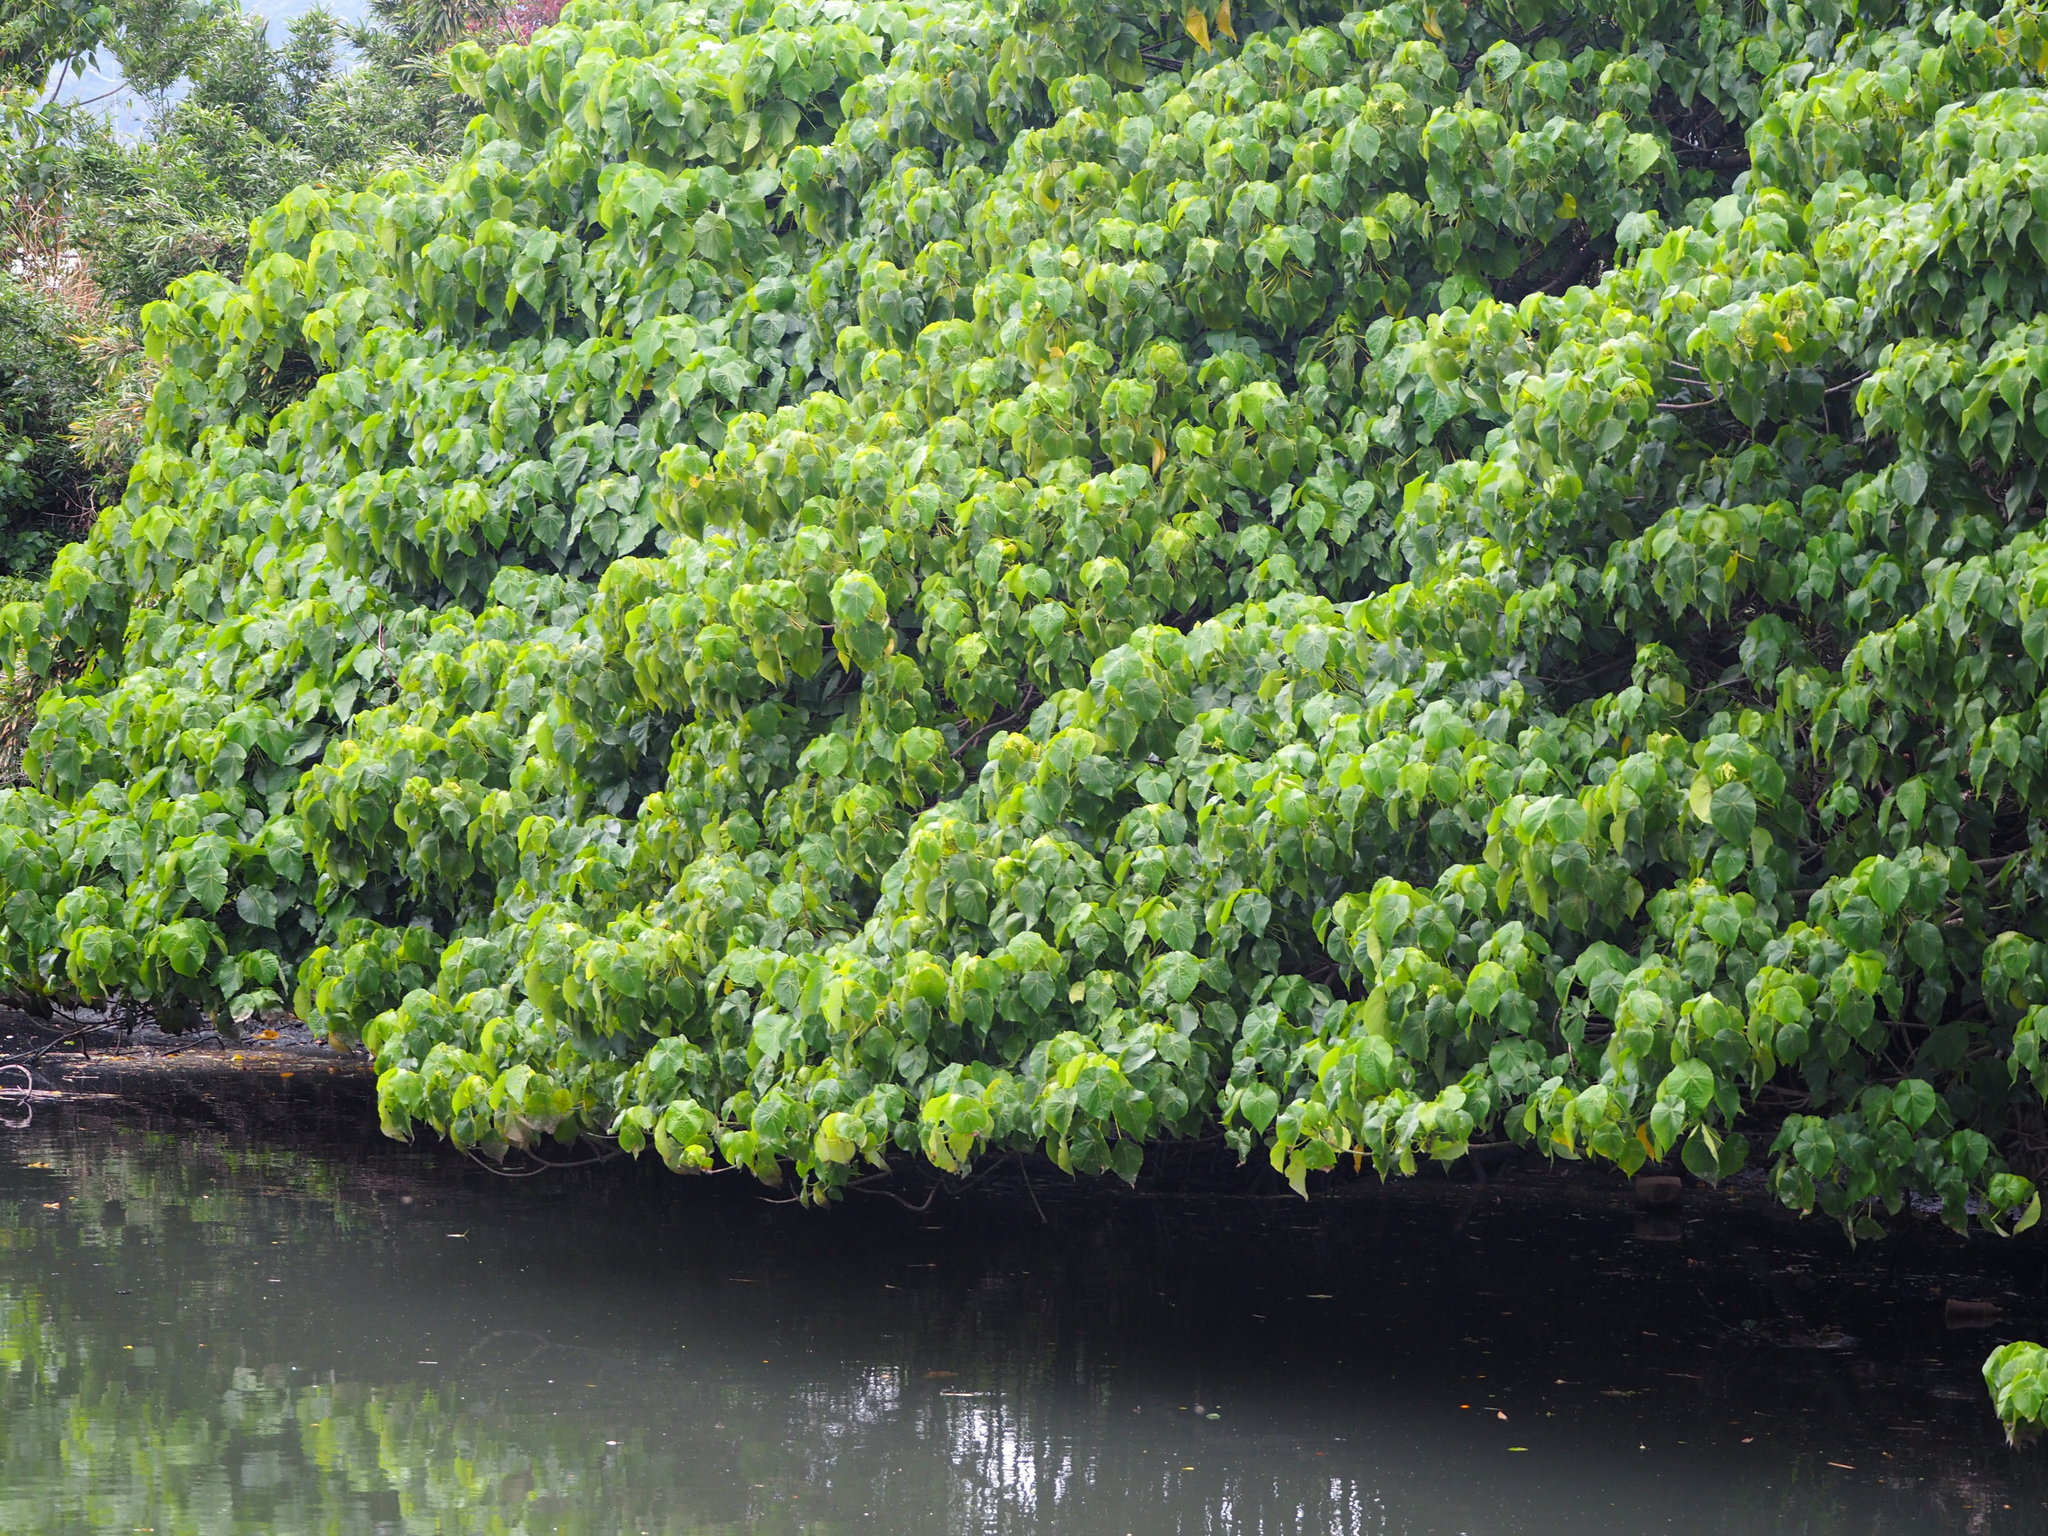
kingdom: Plantae
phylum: Tracheophyta
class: Magnoliopsida
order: Malpighiales
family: Euphorbiaceae
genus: Macaranga
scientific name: Macaranga tanarius
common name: Parasol leaf tree
